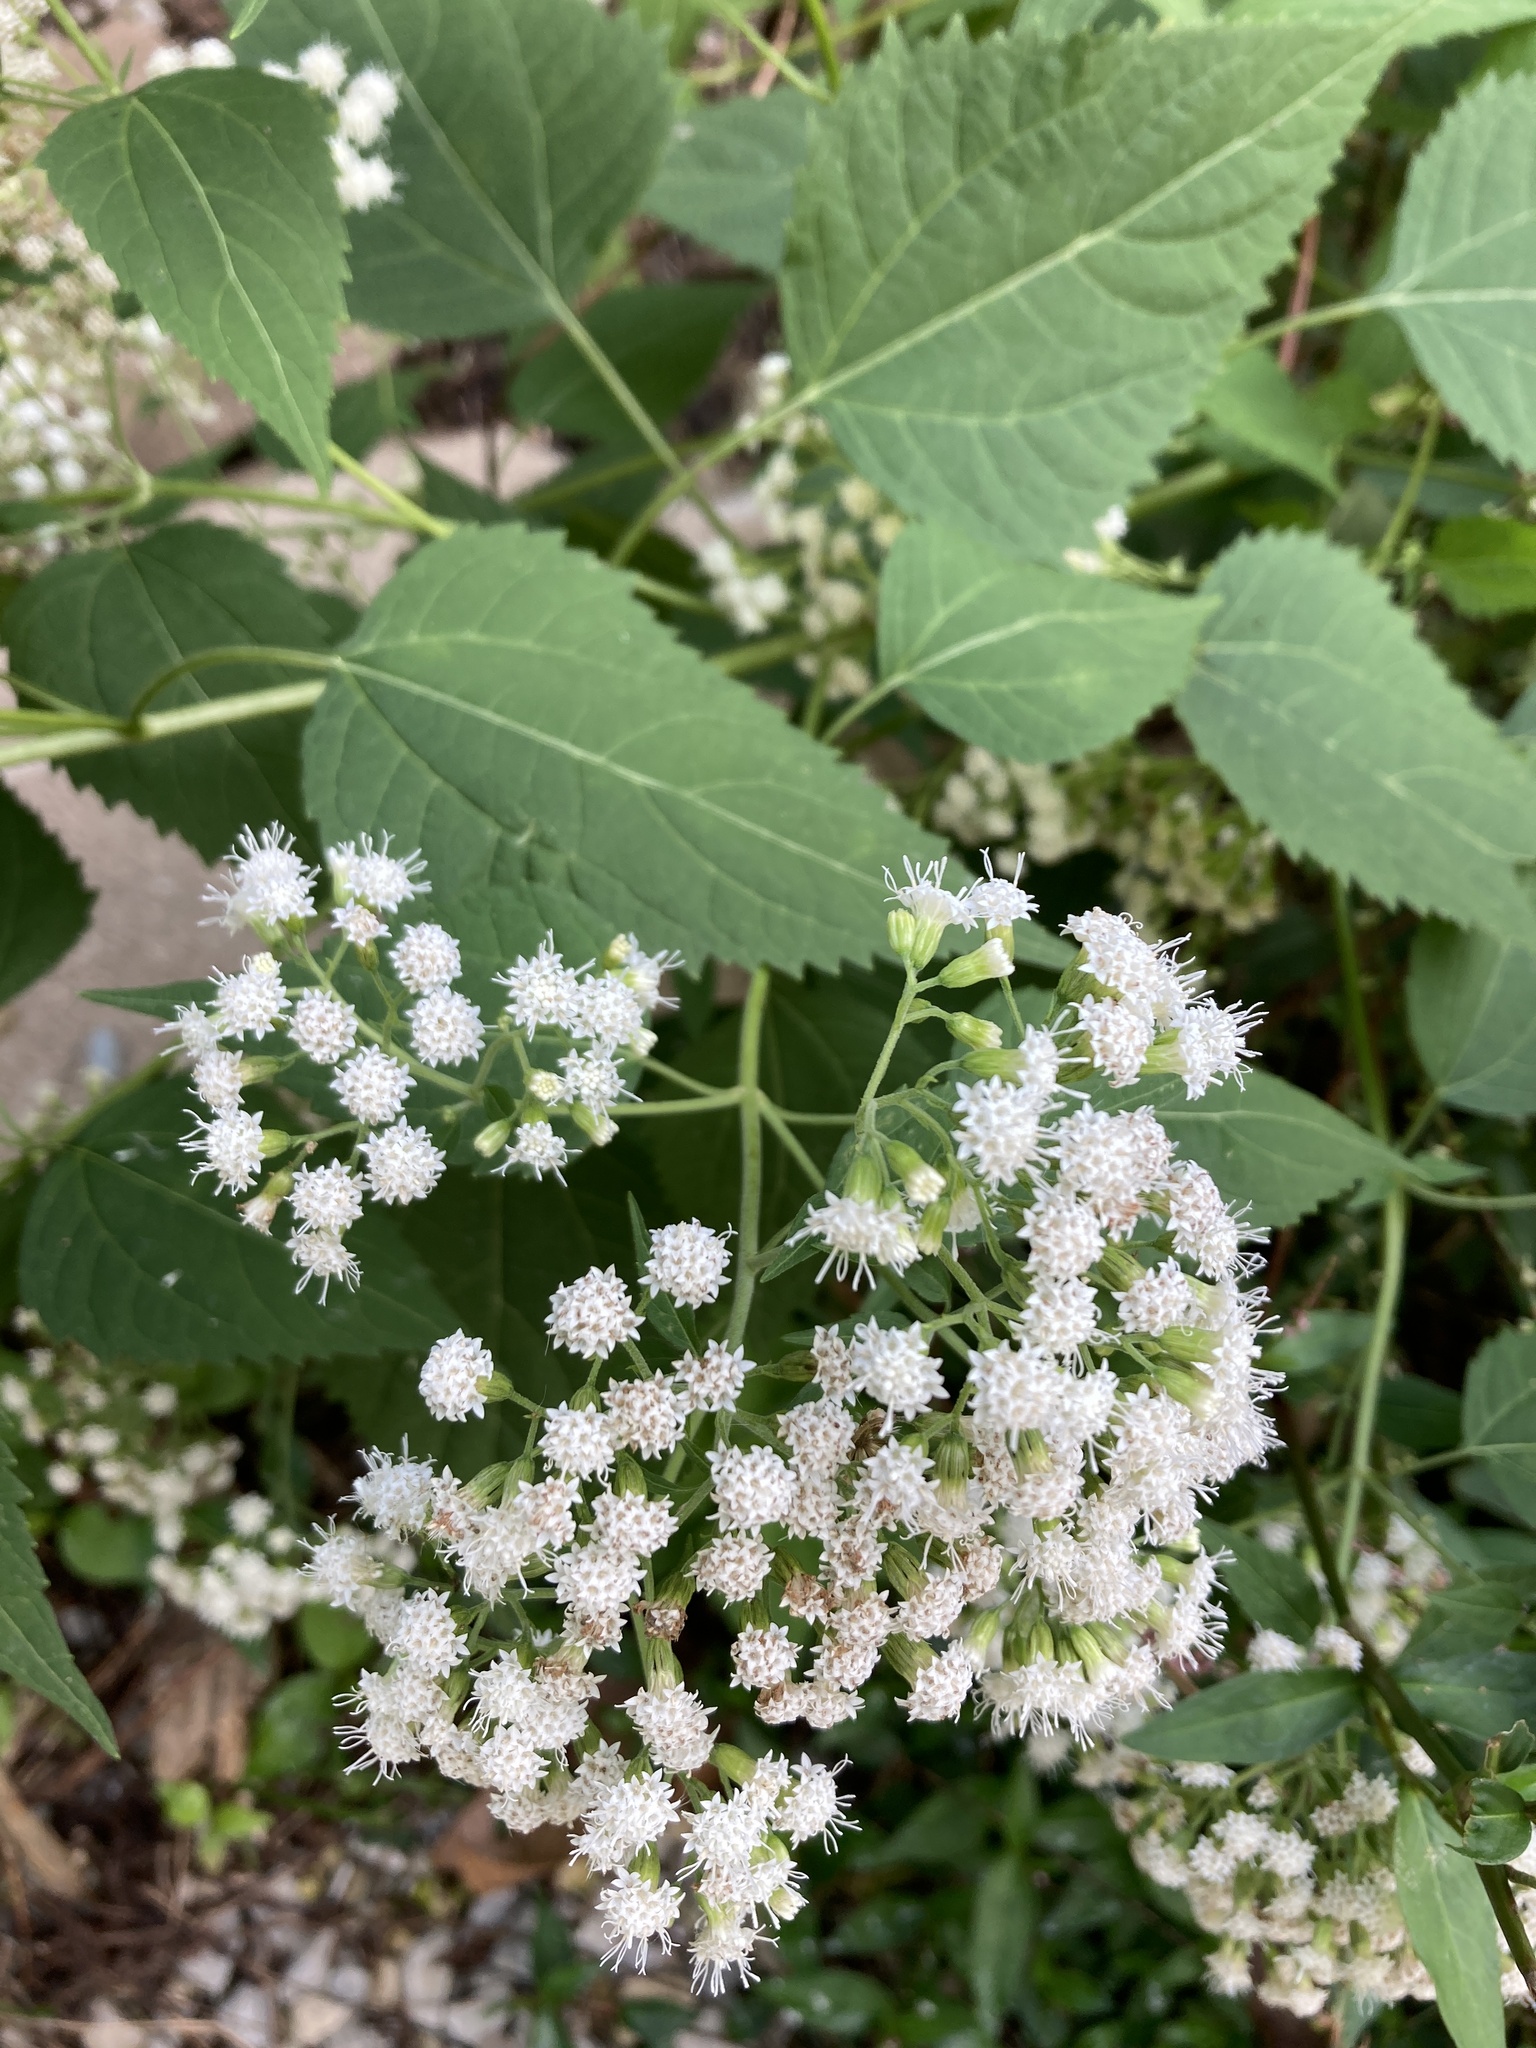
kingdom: Plantae
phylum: Tracheophyta
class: Magnoliopsida
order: Asterales
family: Asteraceae
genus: Ageratina
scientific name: Ageratina altissima
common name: White snakeroot
